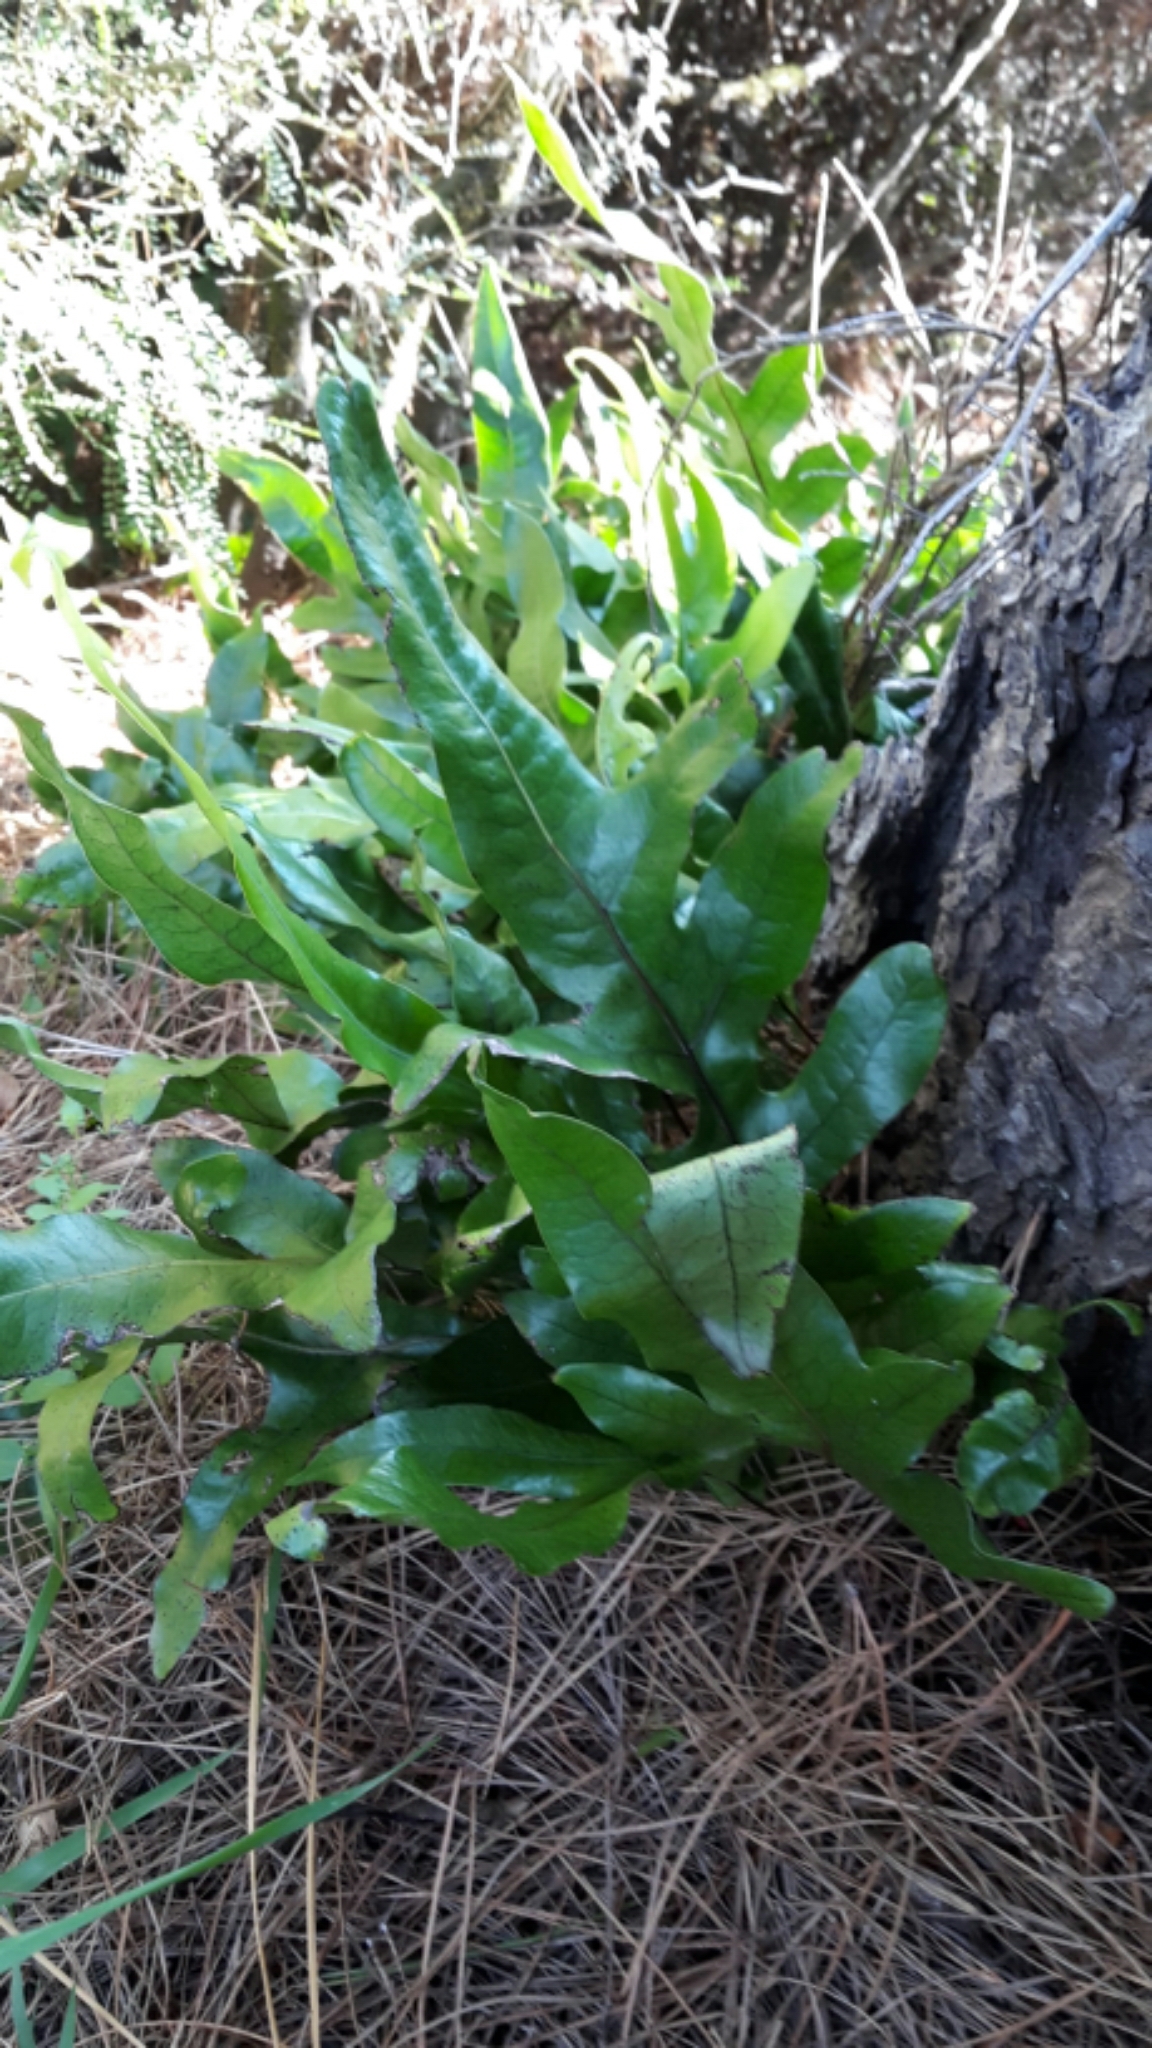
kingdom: Plantae
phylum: Tracheophyta
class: Polypodiopsida
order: Polypodiales
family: Polypodiaceae
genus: Lecanopteris
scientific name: Lecanopteris pustulata
